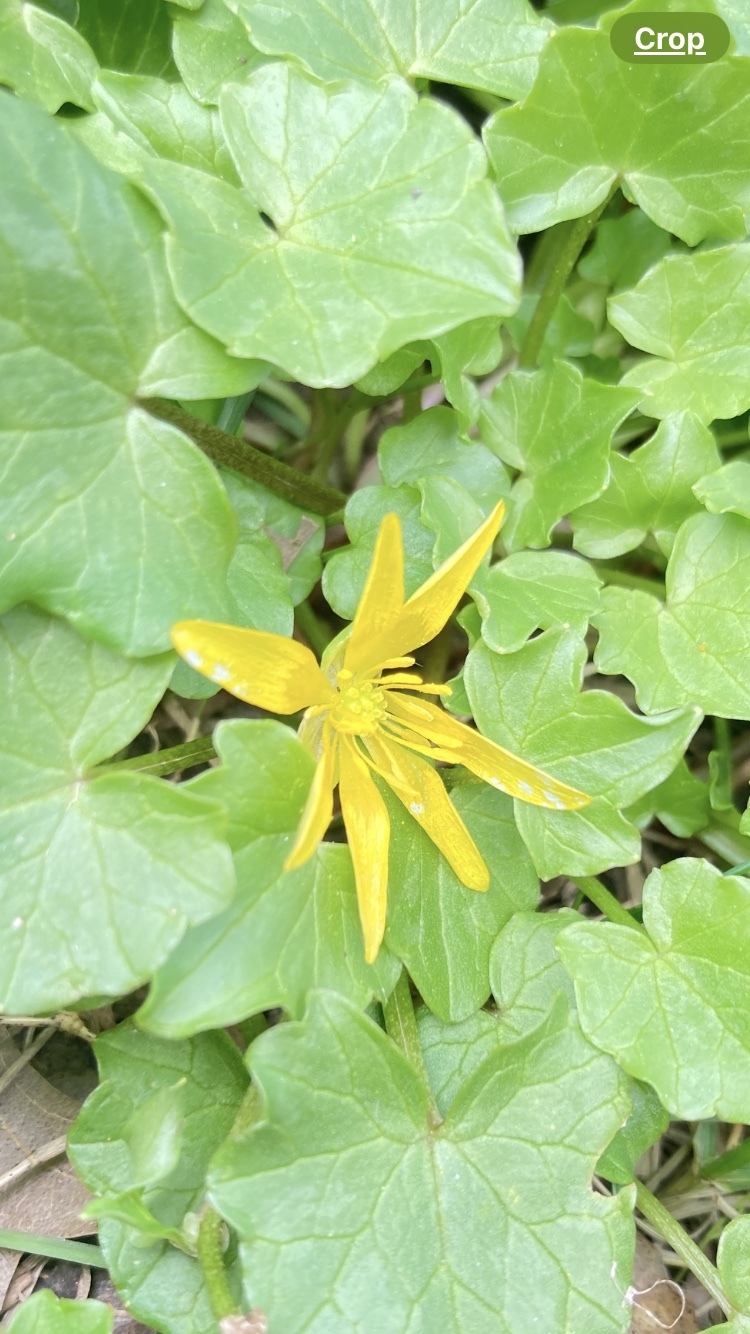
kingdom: Plantae
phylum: Tracheophyta
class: Magnoliopsida
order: Ranunculales
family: Ranunculaceae
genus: Ficaria
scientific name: Ficaria verna
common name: Lesser celandine
